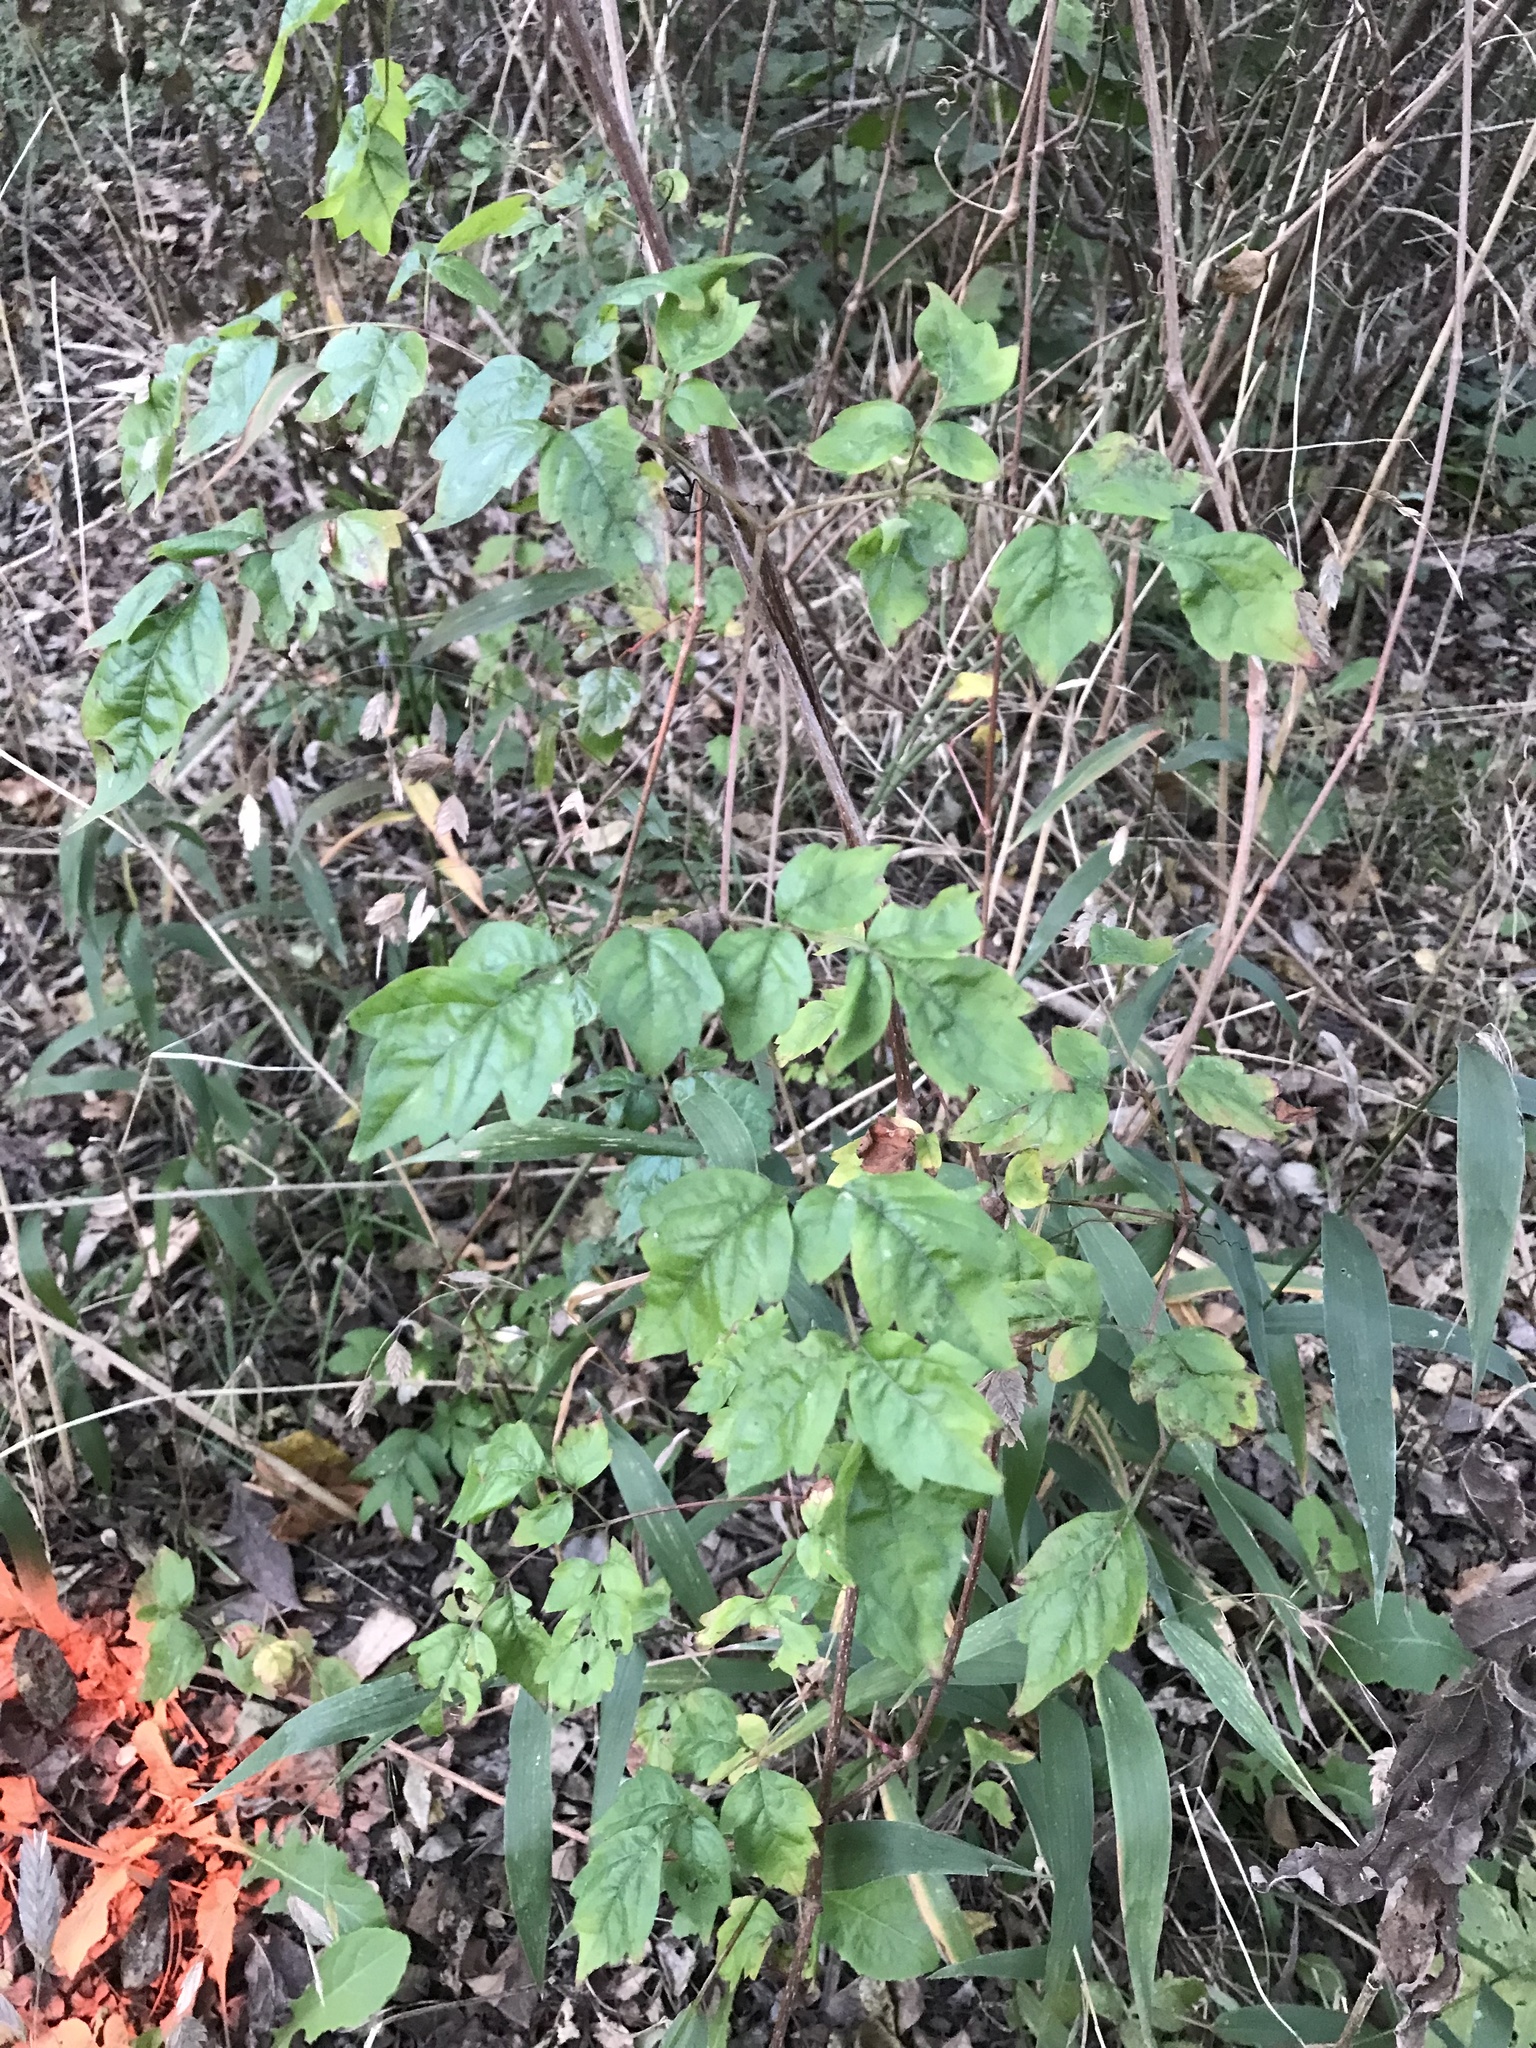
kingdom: Plantae
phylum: Tracheophyta
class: Magnoliopsida
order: Vitales
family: Vitaceae
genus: Nekemias
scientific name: Nekemias arborea
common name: Peppervine
